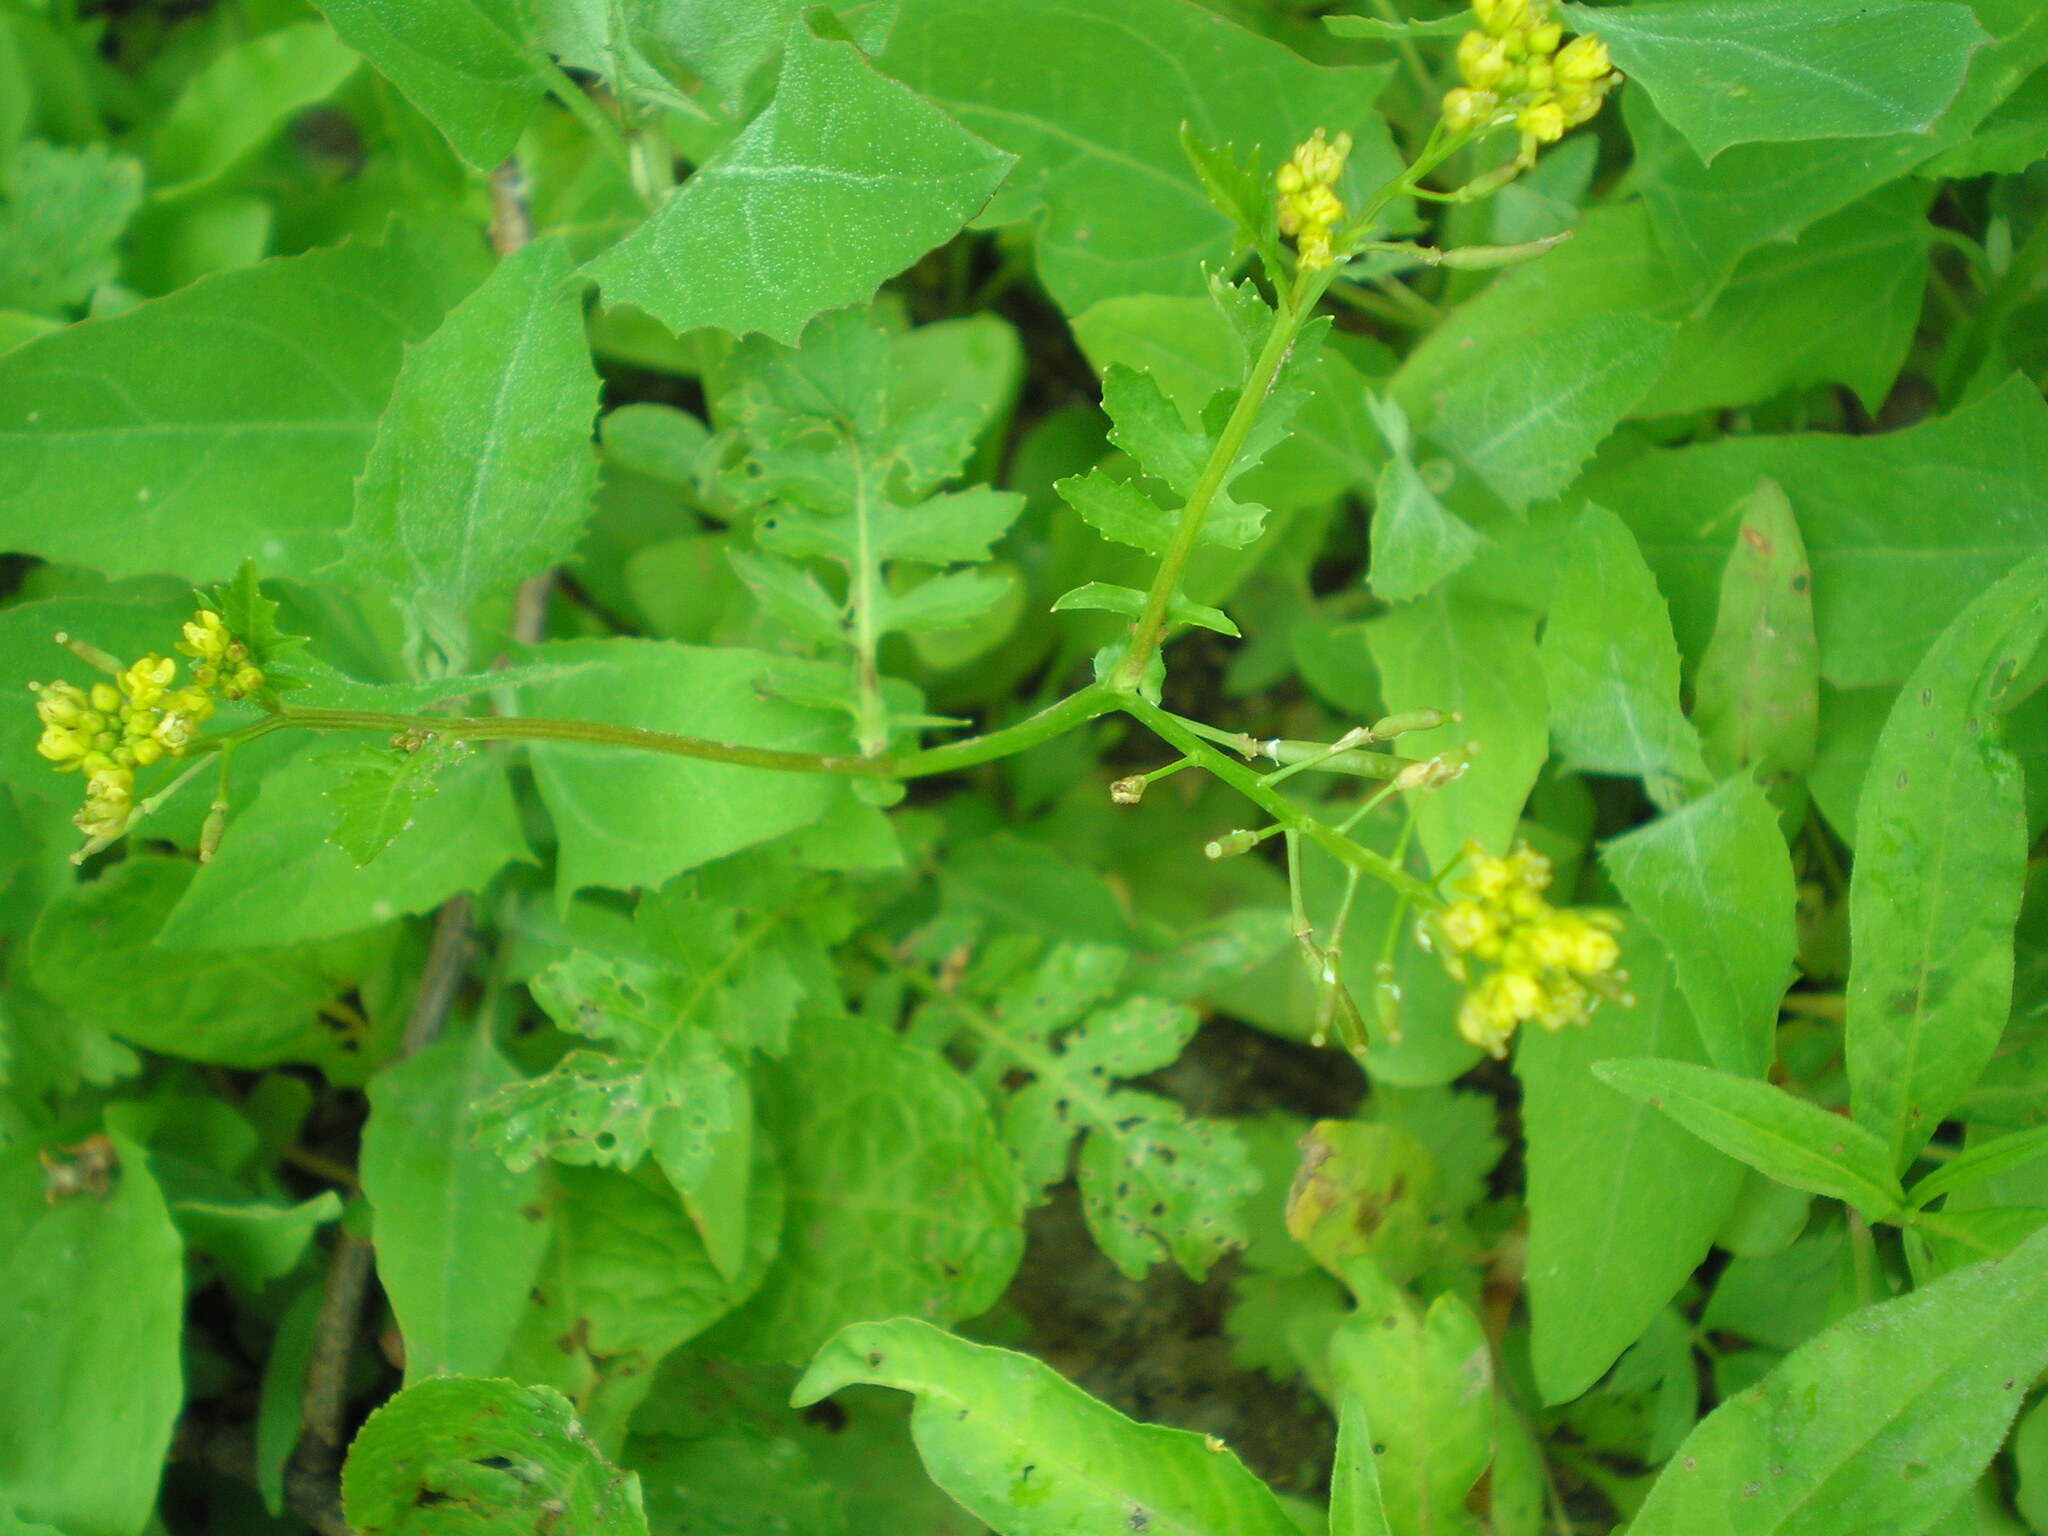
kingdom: Plantae
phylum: Tracheophyta
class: Magnoliopsida
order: Brassicales
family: Brassicaceae
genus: Rorippa
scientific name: Rorippa palustris
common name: Marsh yellow-cress
